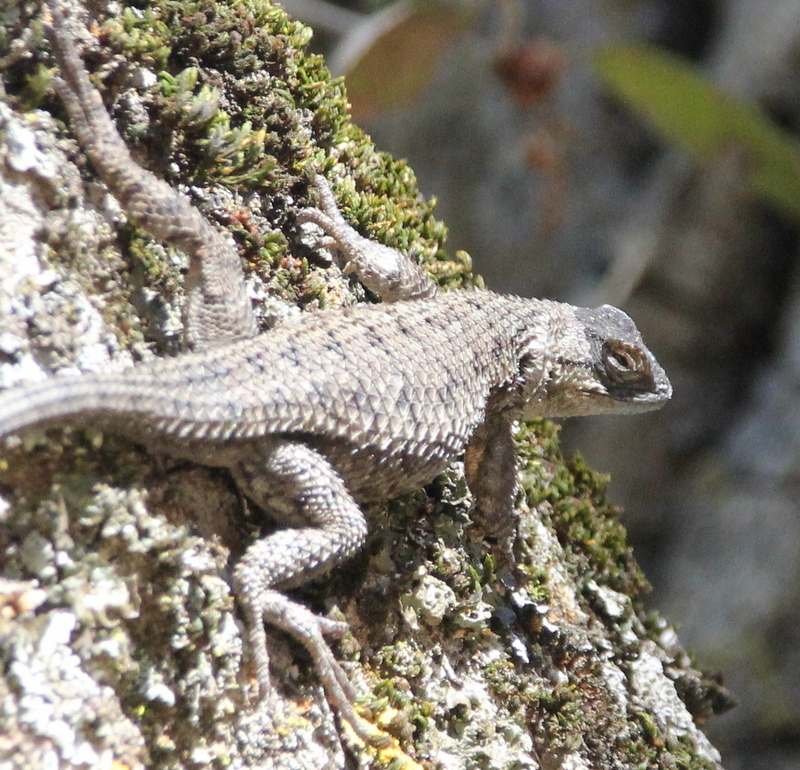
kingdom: Animalia
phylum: Chordata
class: Squamata
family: Phrynosomatidae
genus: Sceloporus
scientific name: Sceloporus occidentalis
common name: Western fence lizard
